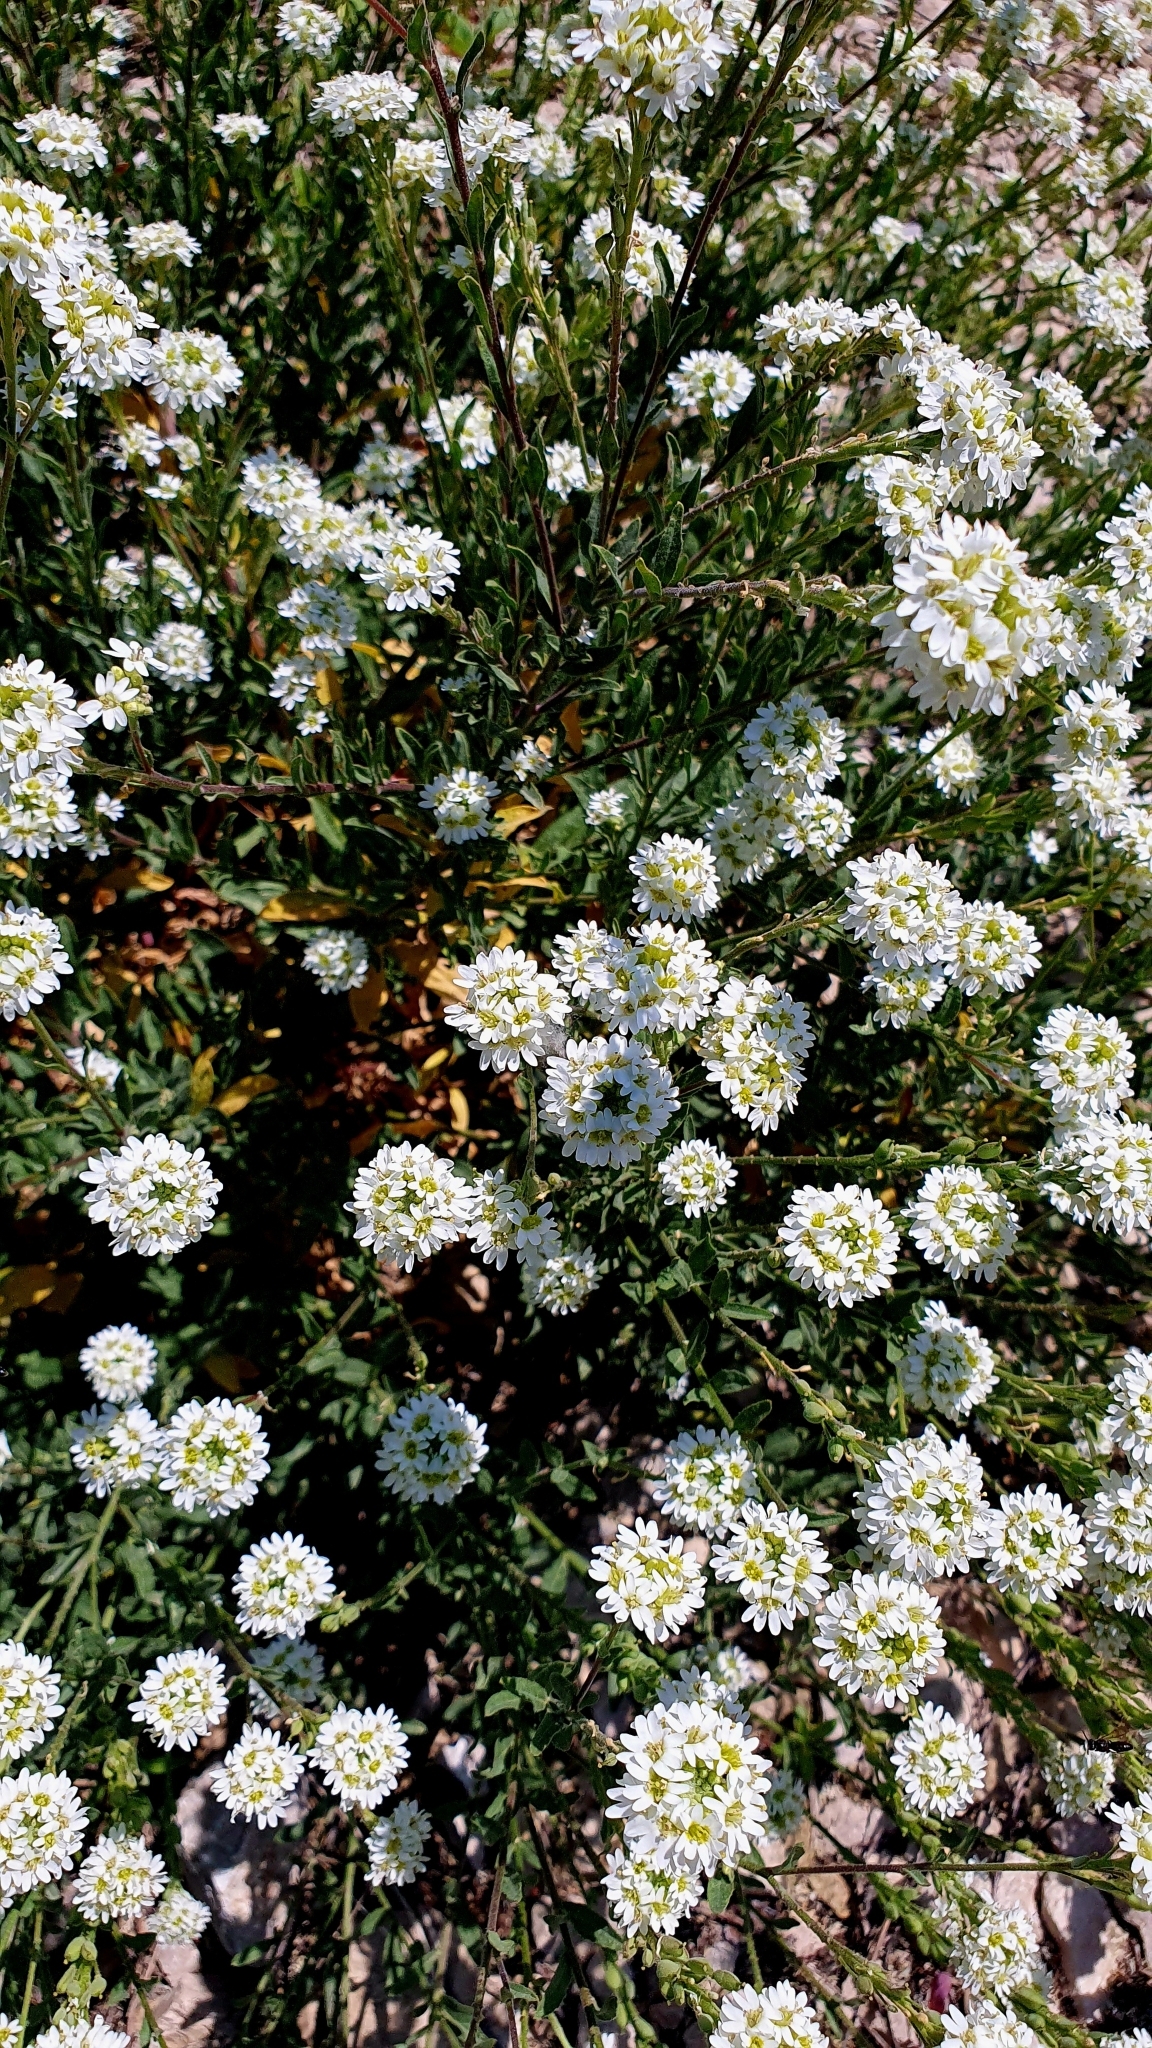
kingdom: Plantae
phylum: Tracheophyta
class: Magnoliopsida
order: Brassicales
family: Brassicaceae
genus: Berteroa
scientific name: Berteroa incana
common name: Hoary alison
